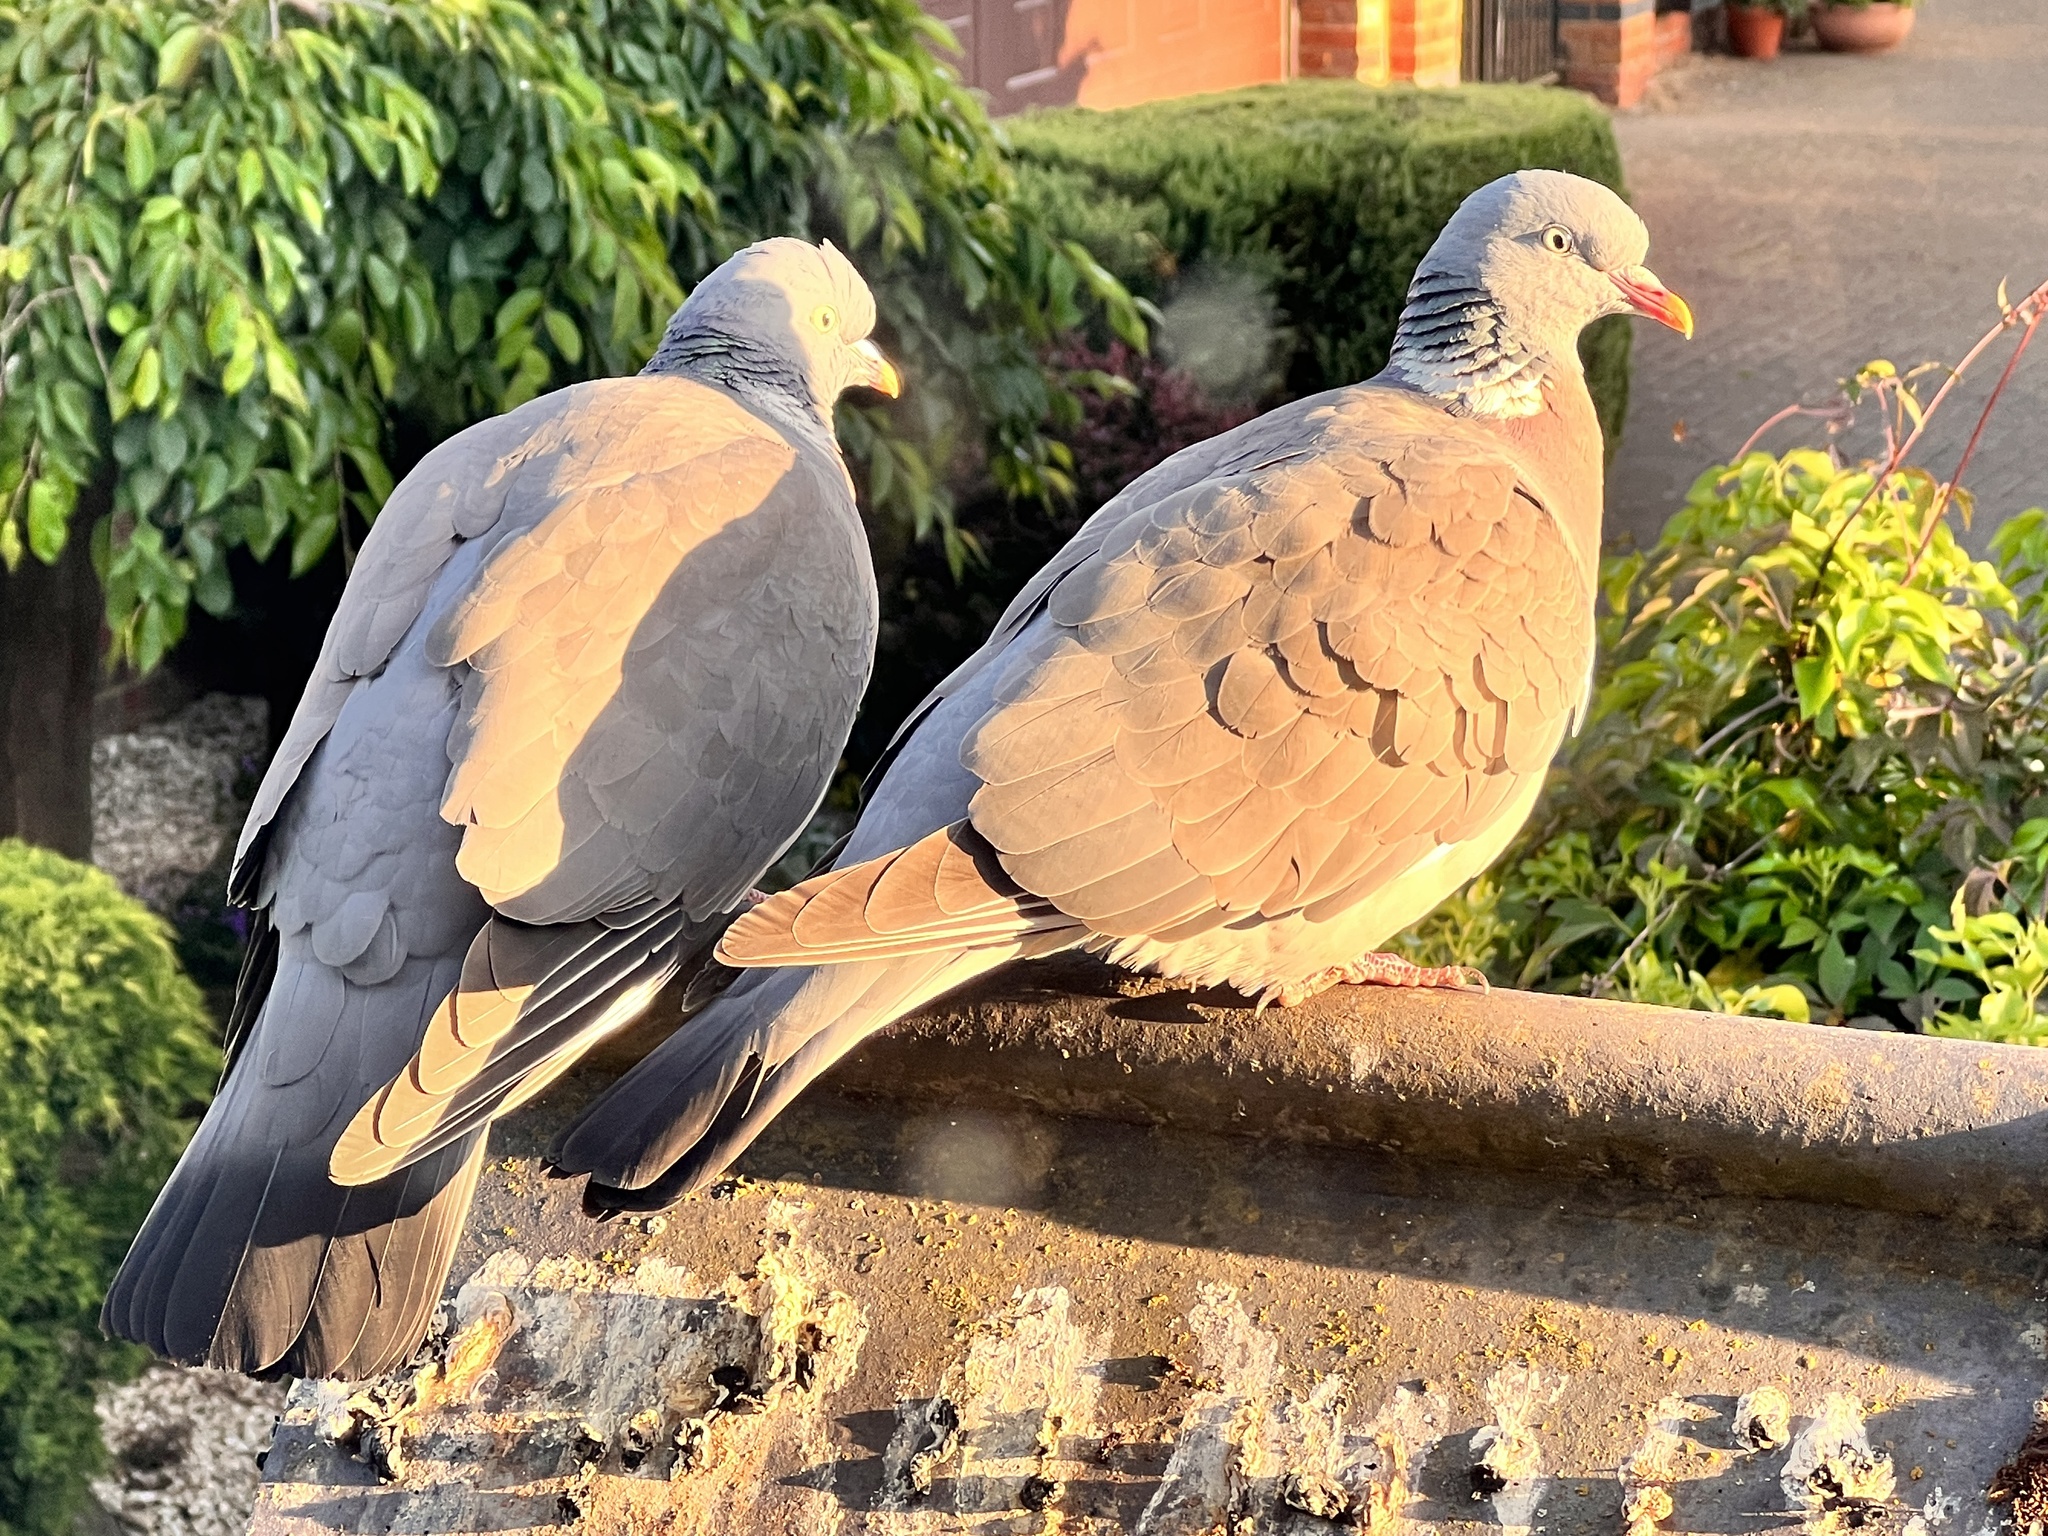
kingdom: Animalia
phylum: Chordata
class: Aves
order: Columbiformes
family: Columbidae
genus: Columba
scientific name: Columba palumbus
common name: Common wood pigeon
